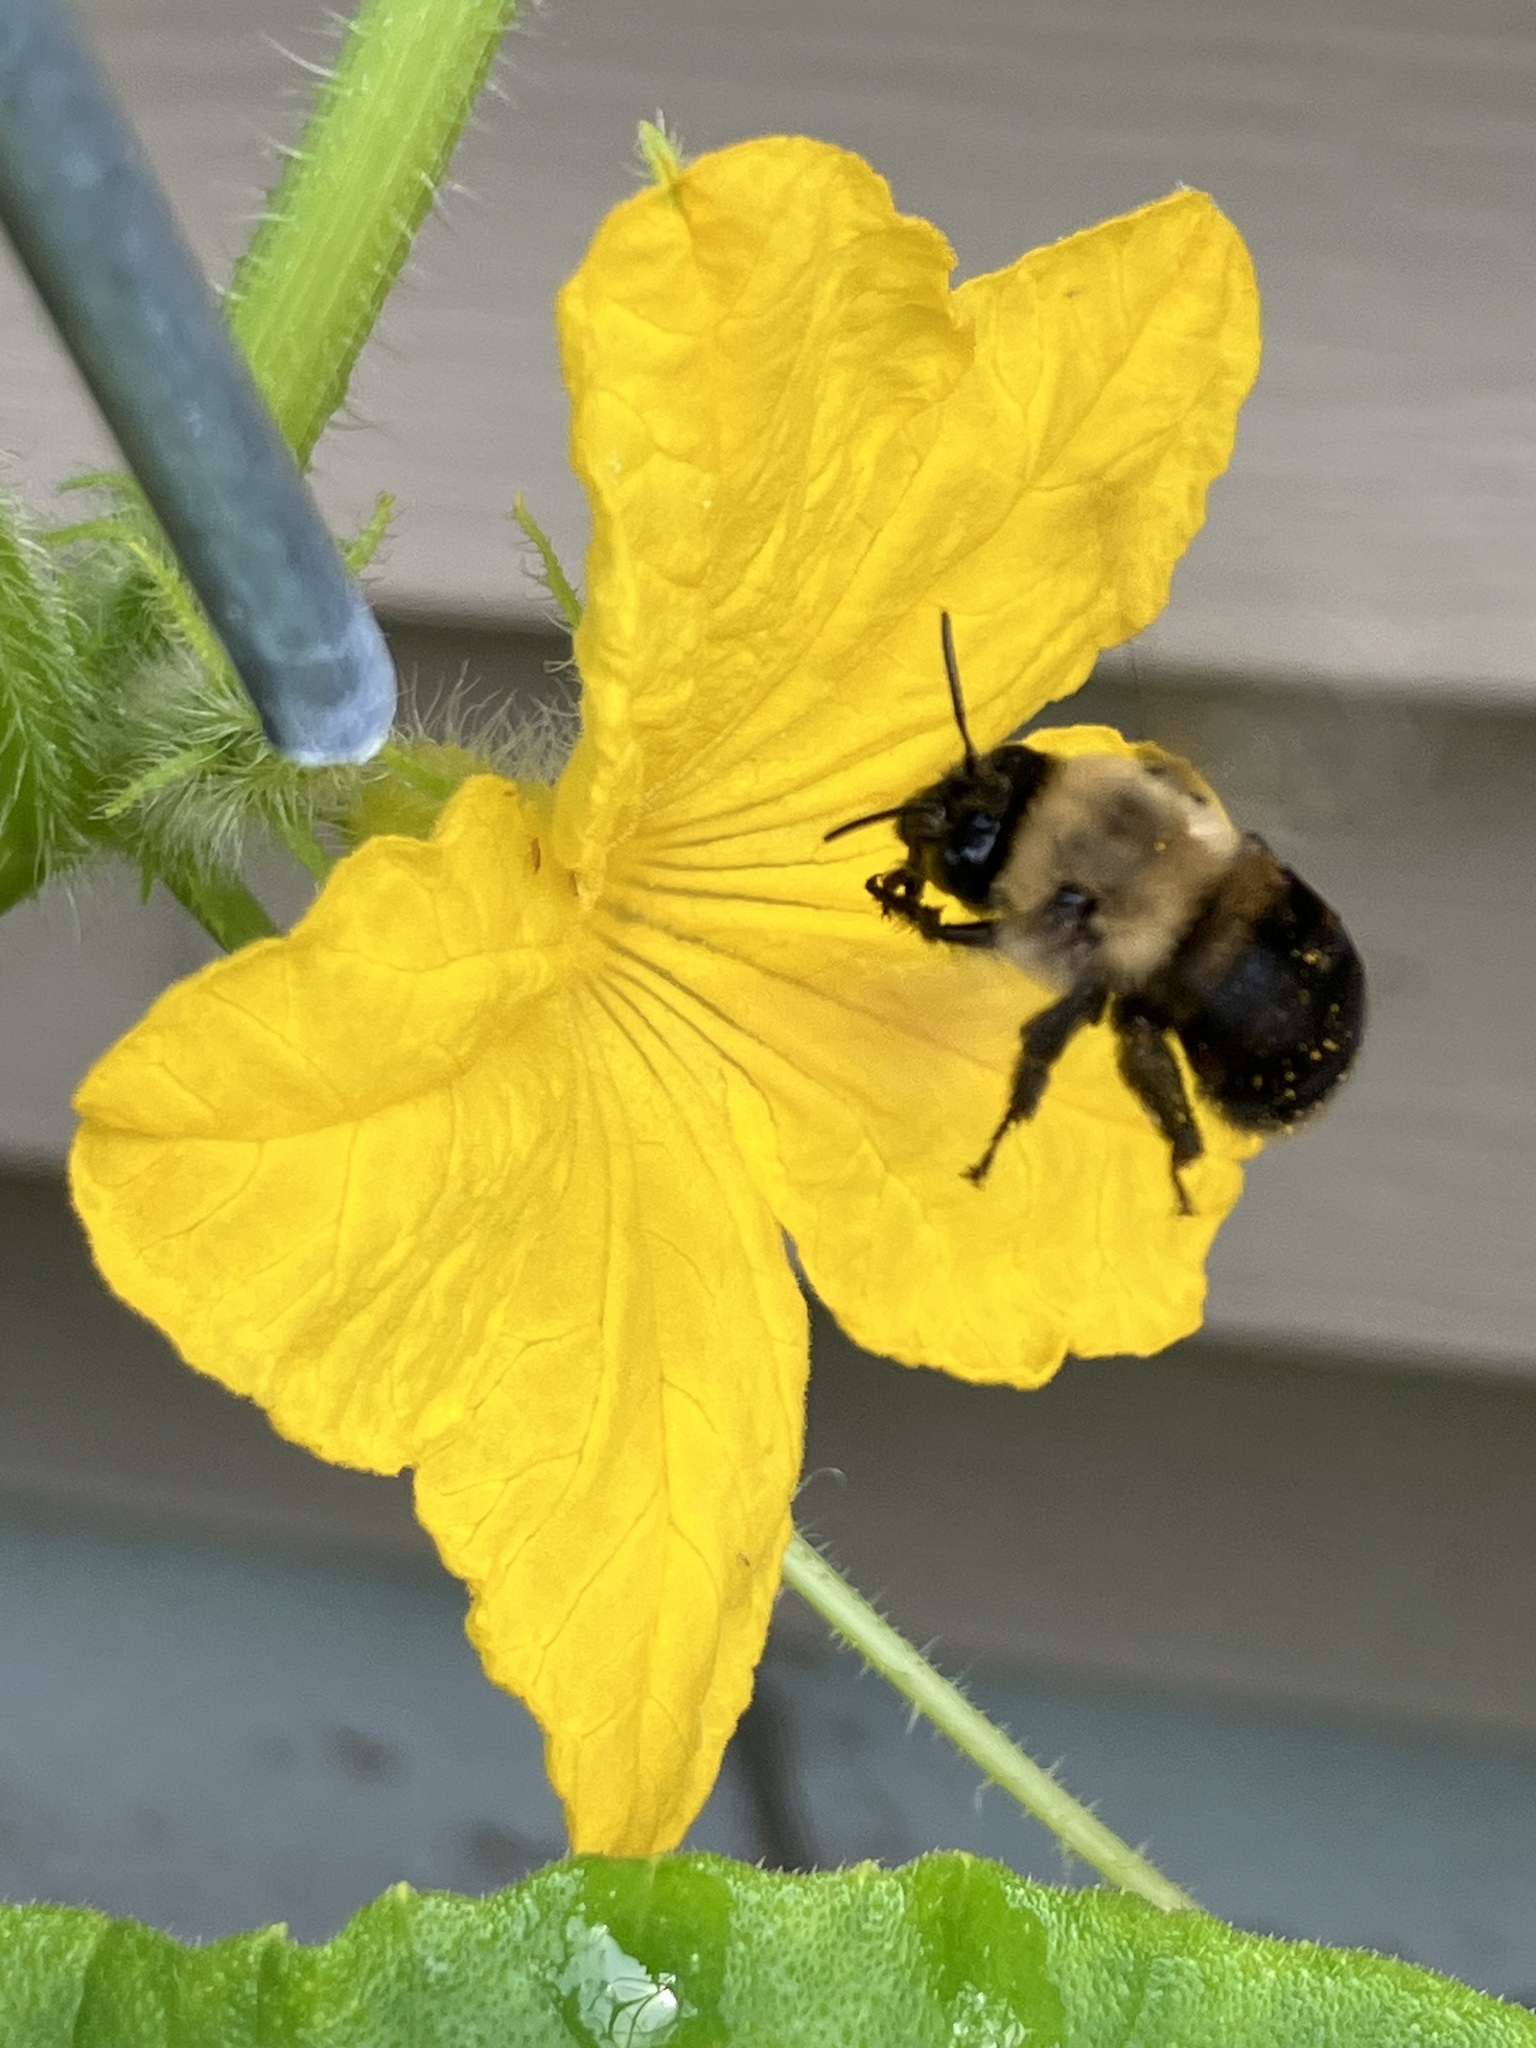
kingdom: Animalia
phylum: Arthropoda
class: Insecta
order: Hymenoptera
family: Apidae
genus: Anthophora
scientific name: Anthophora abrupta
